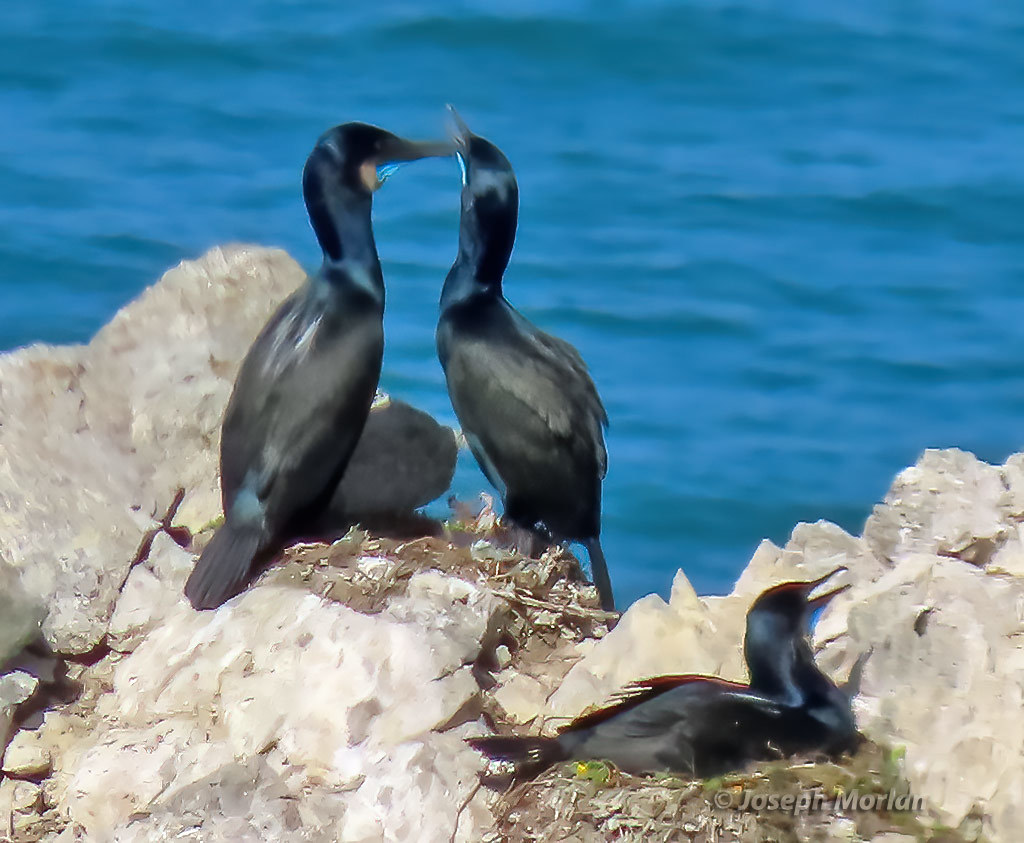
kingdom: Animalia
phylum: Chordata
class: Aves
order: Suliformes
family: Phalacrocoracidae
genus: Urile
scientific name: Urile penicillatus
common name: Brandt's cormorant
